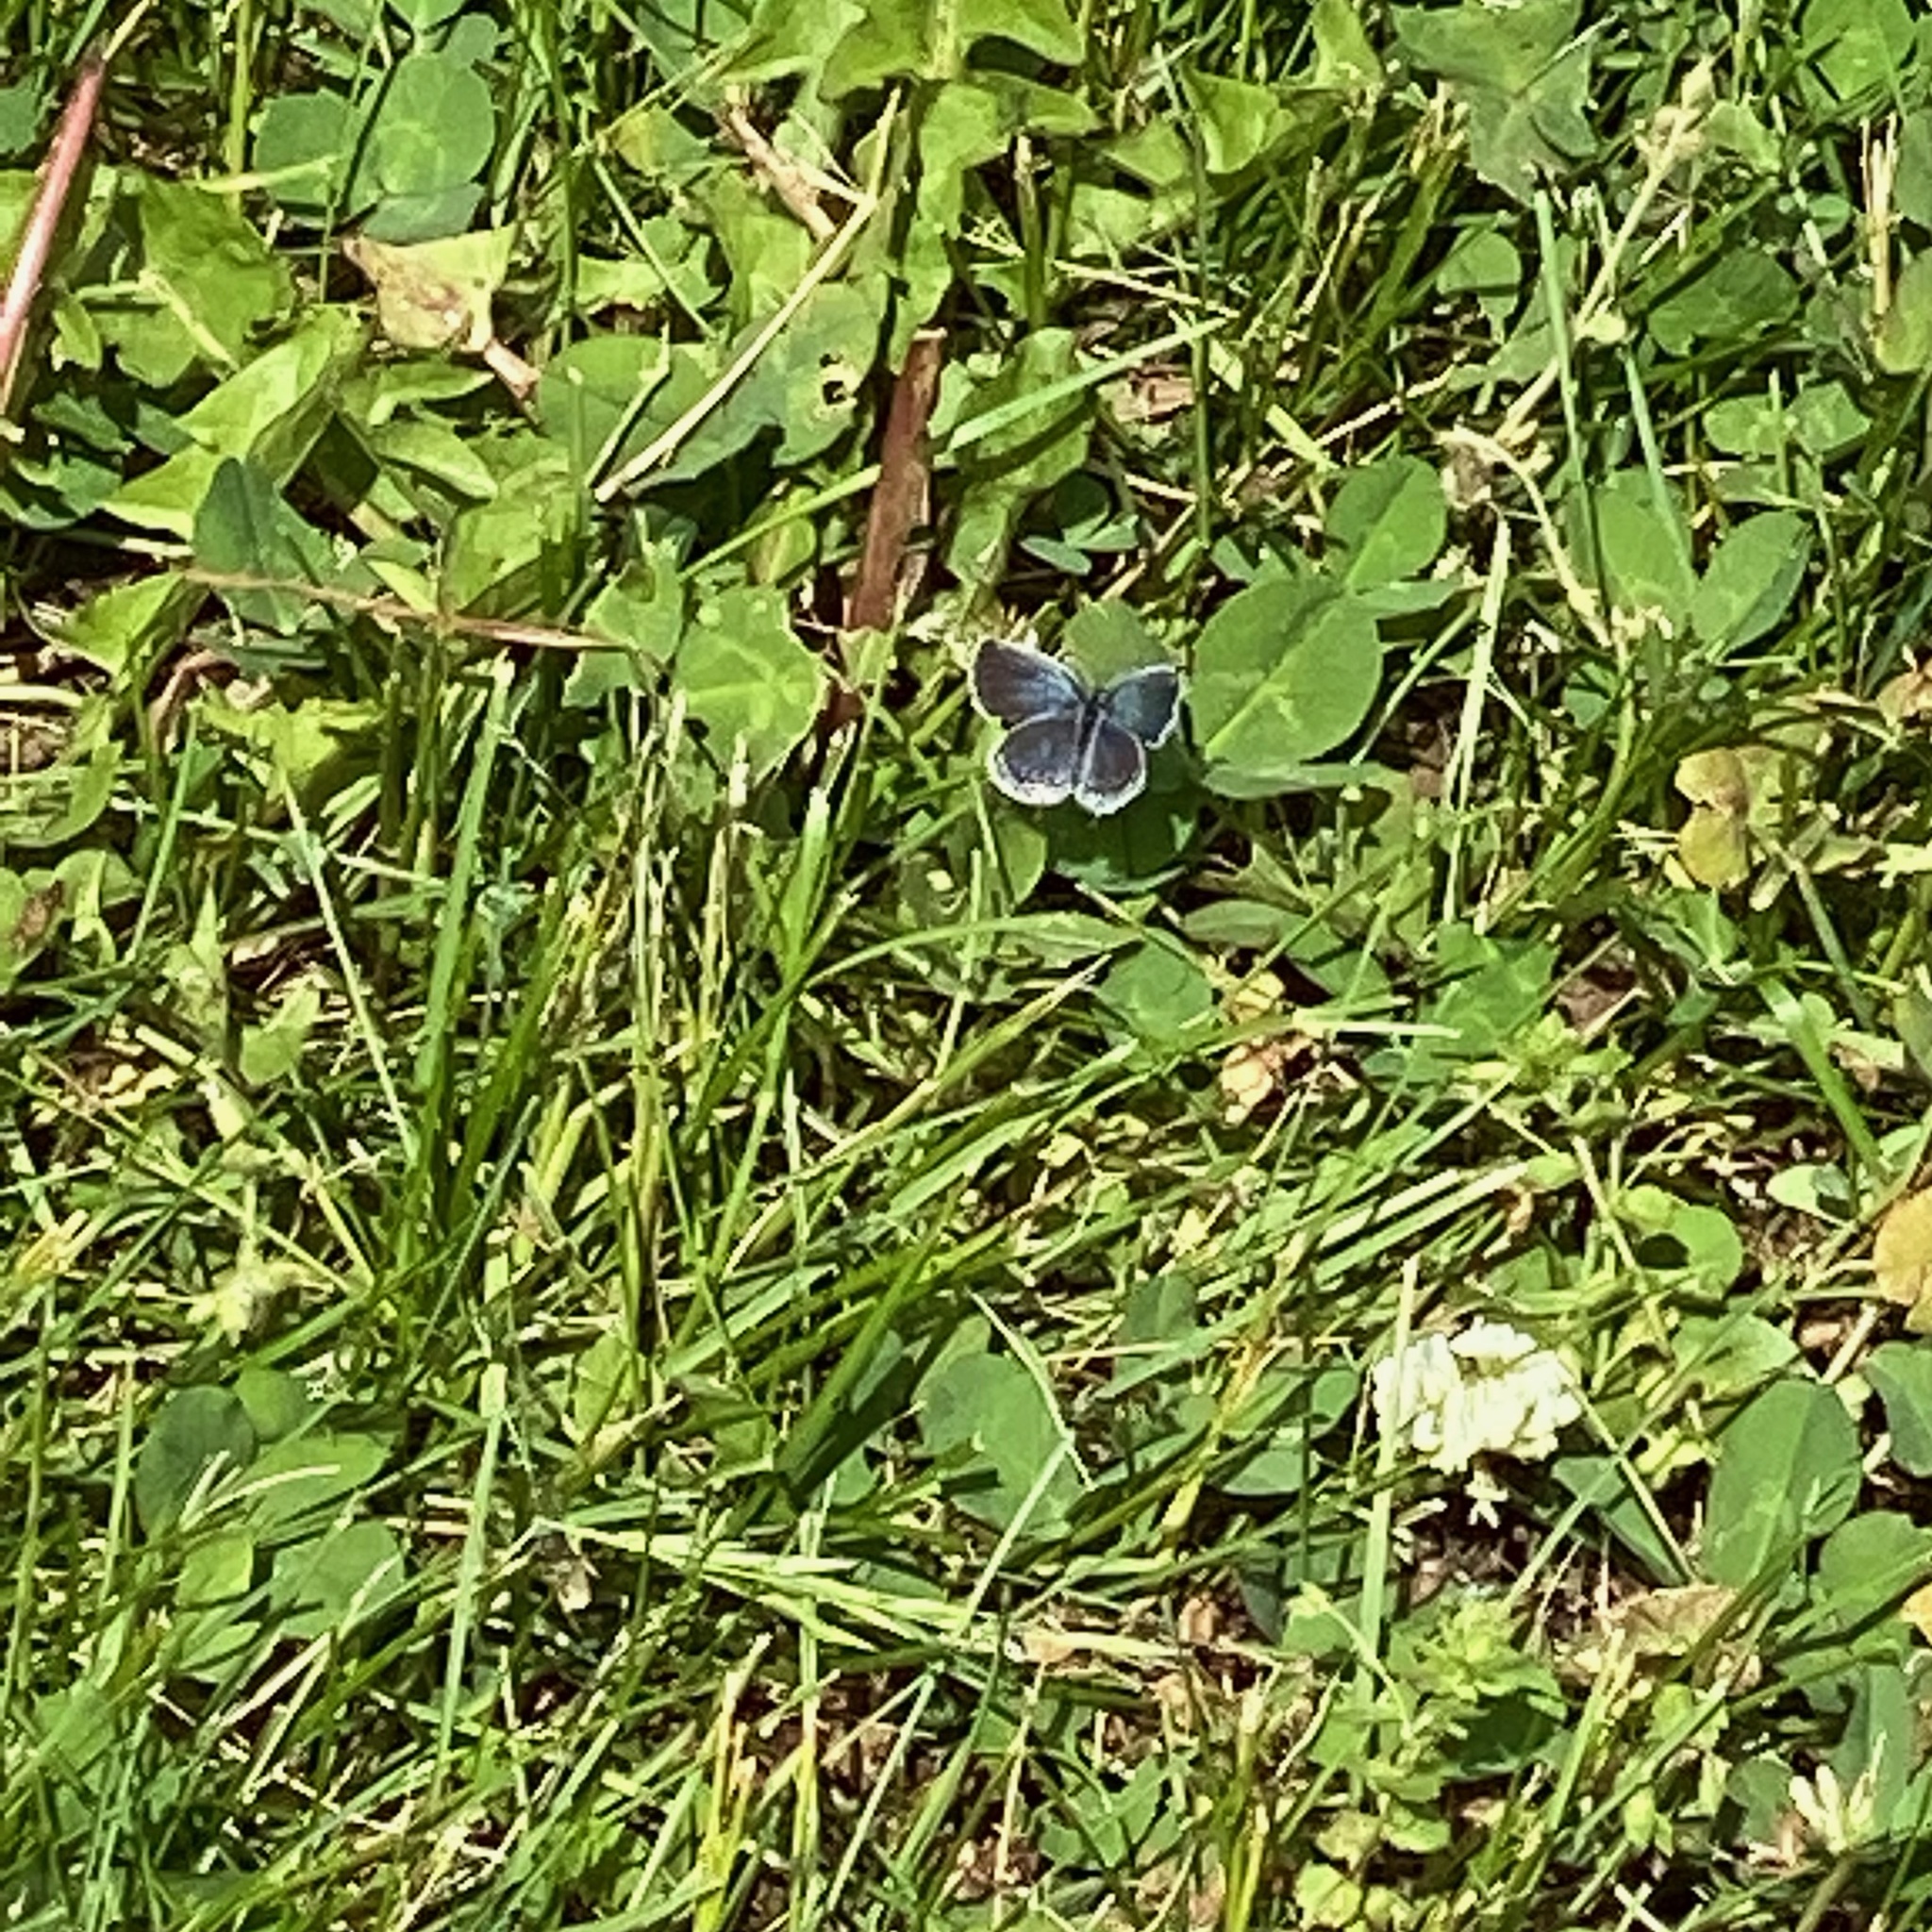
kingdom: Animalia
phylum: Arthropoda
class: Insecta
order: Lepidoptera
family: Lycaenidae
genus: Elkalyce
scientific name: Elkalyce comyntas
